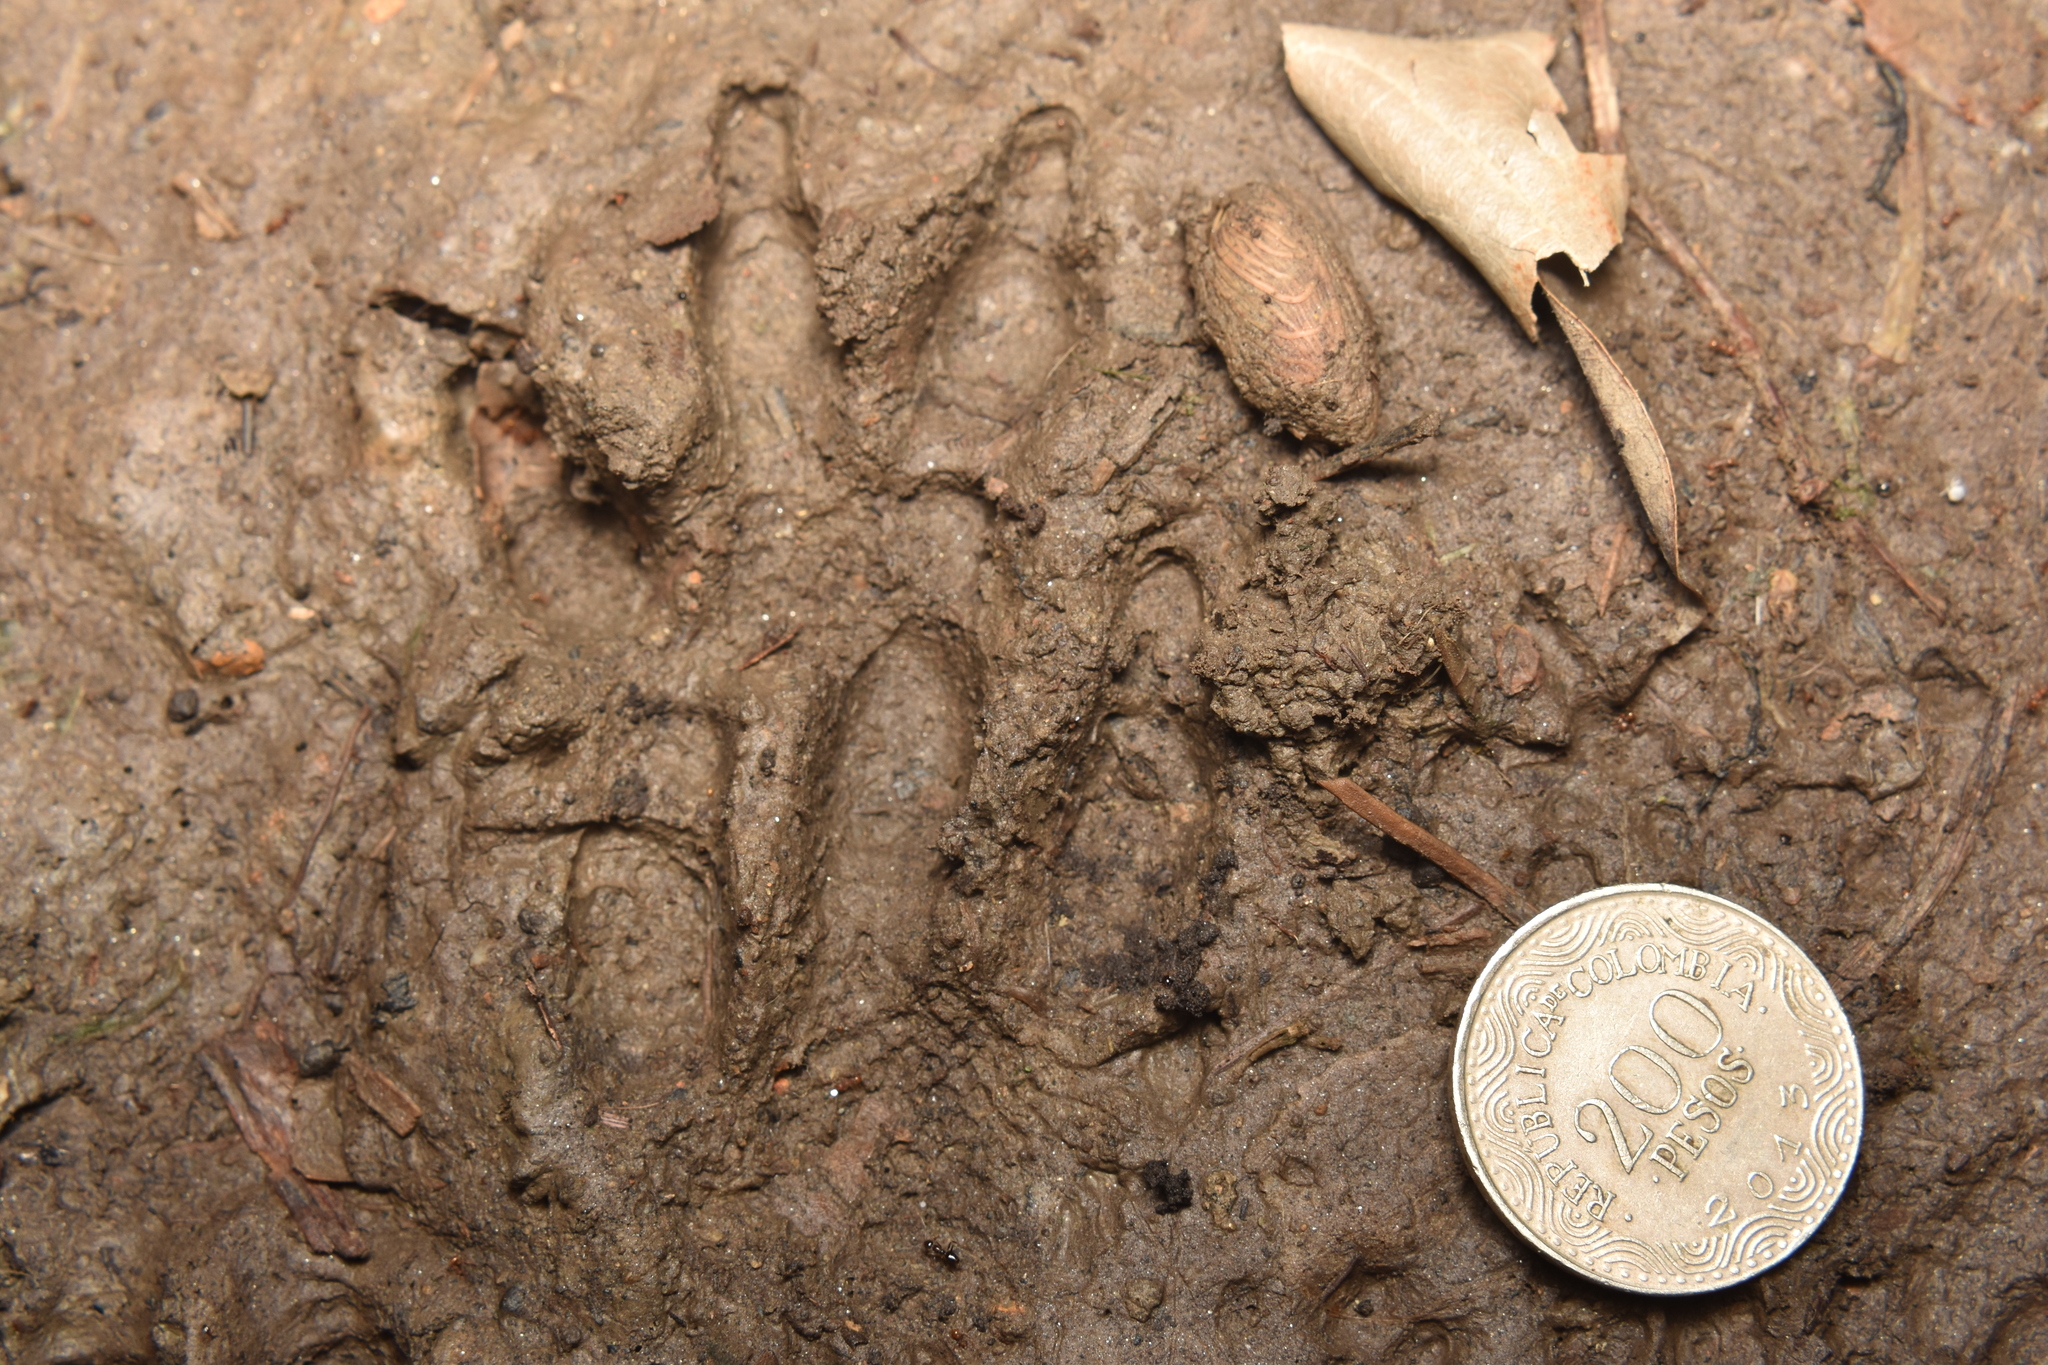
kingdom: Animalia
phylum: Chordata
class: Mammalia
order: Rodentia
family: Cuniculidae
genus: Cuniculus
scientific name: Cuniculus paca
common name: Lowland paca
